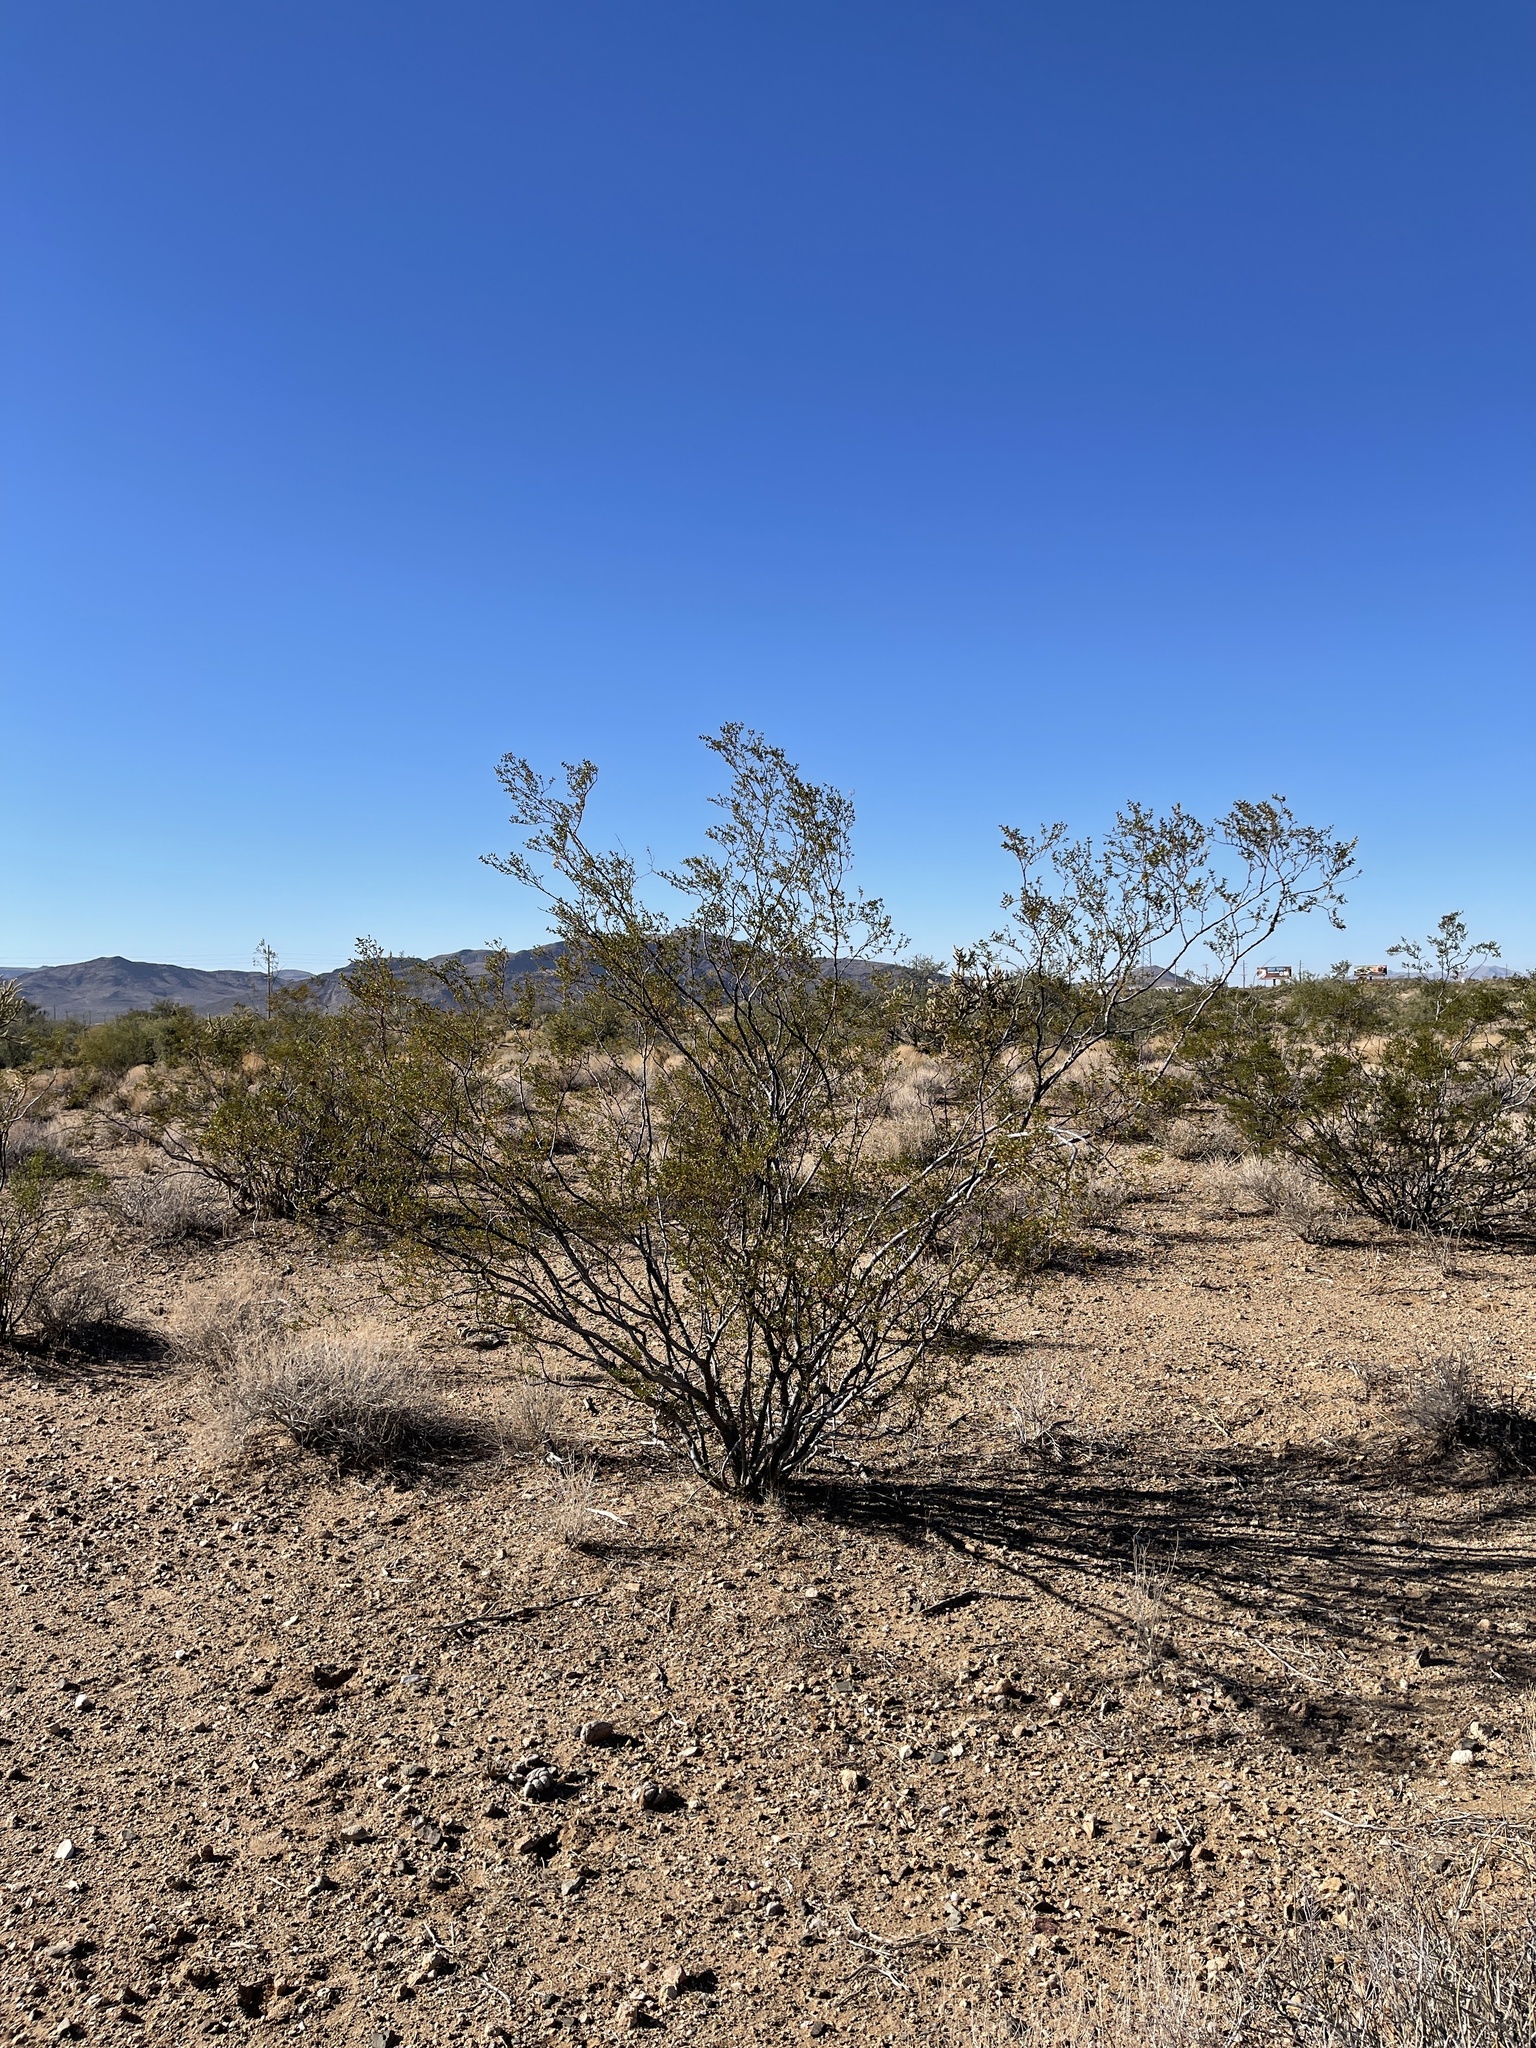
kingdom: Plantae
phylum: Tracheophyta
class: Magnoliopsida
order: Zygophyllales
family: Zygophyllaceae
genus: Larrea
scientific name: Larrea tridentata
